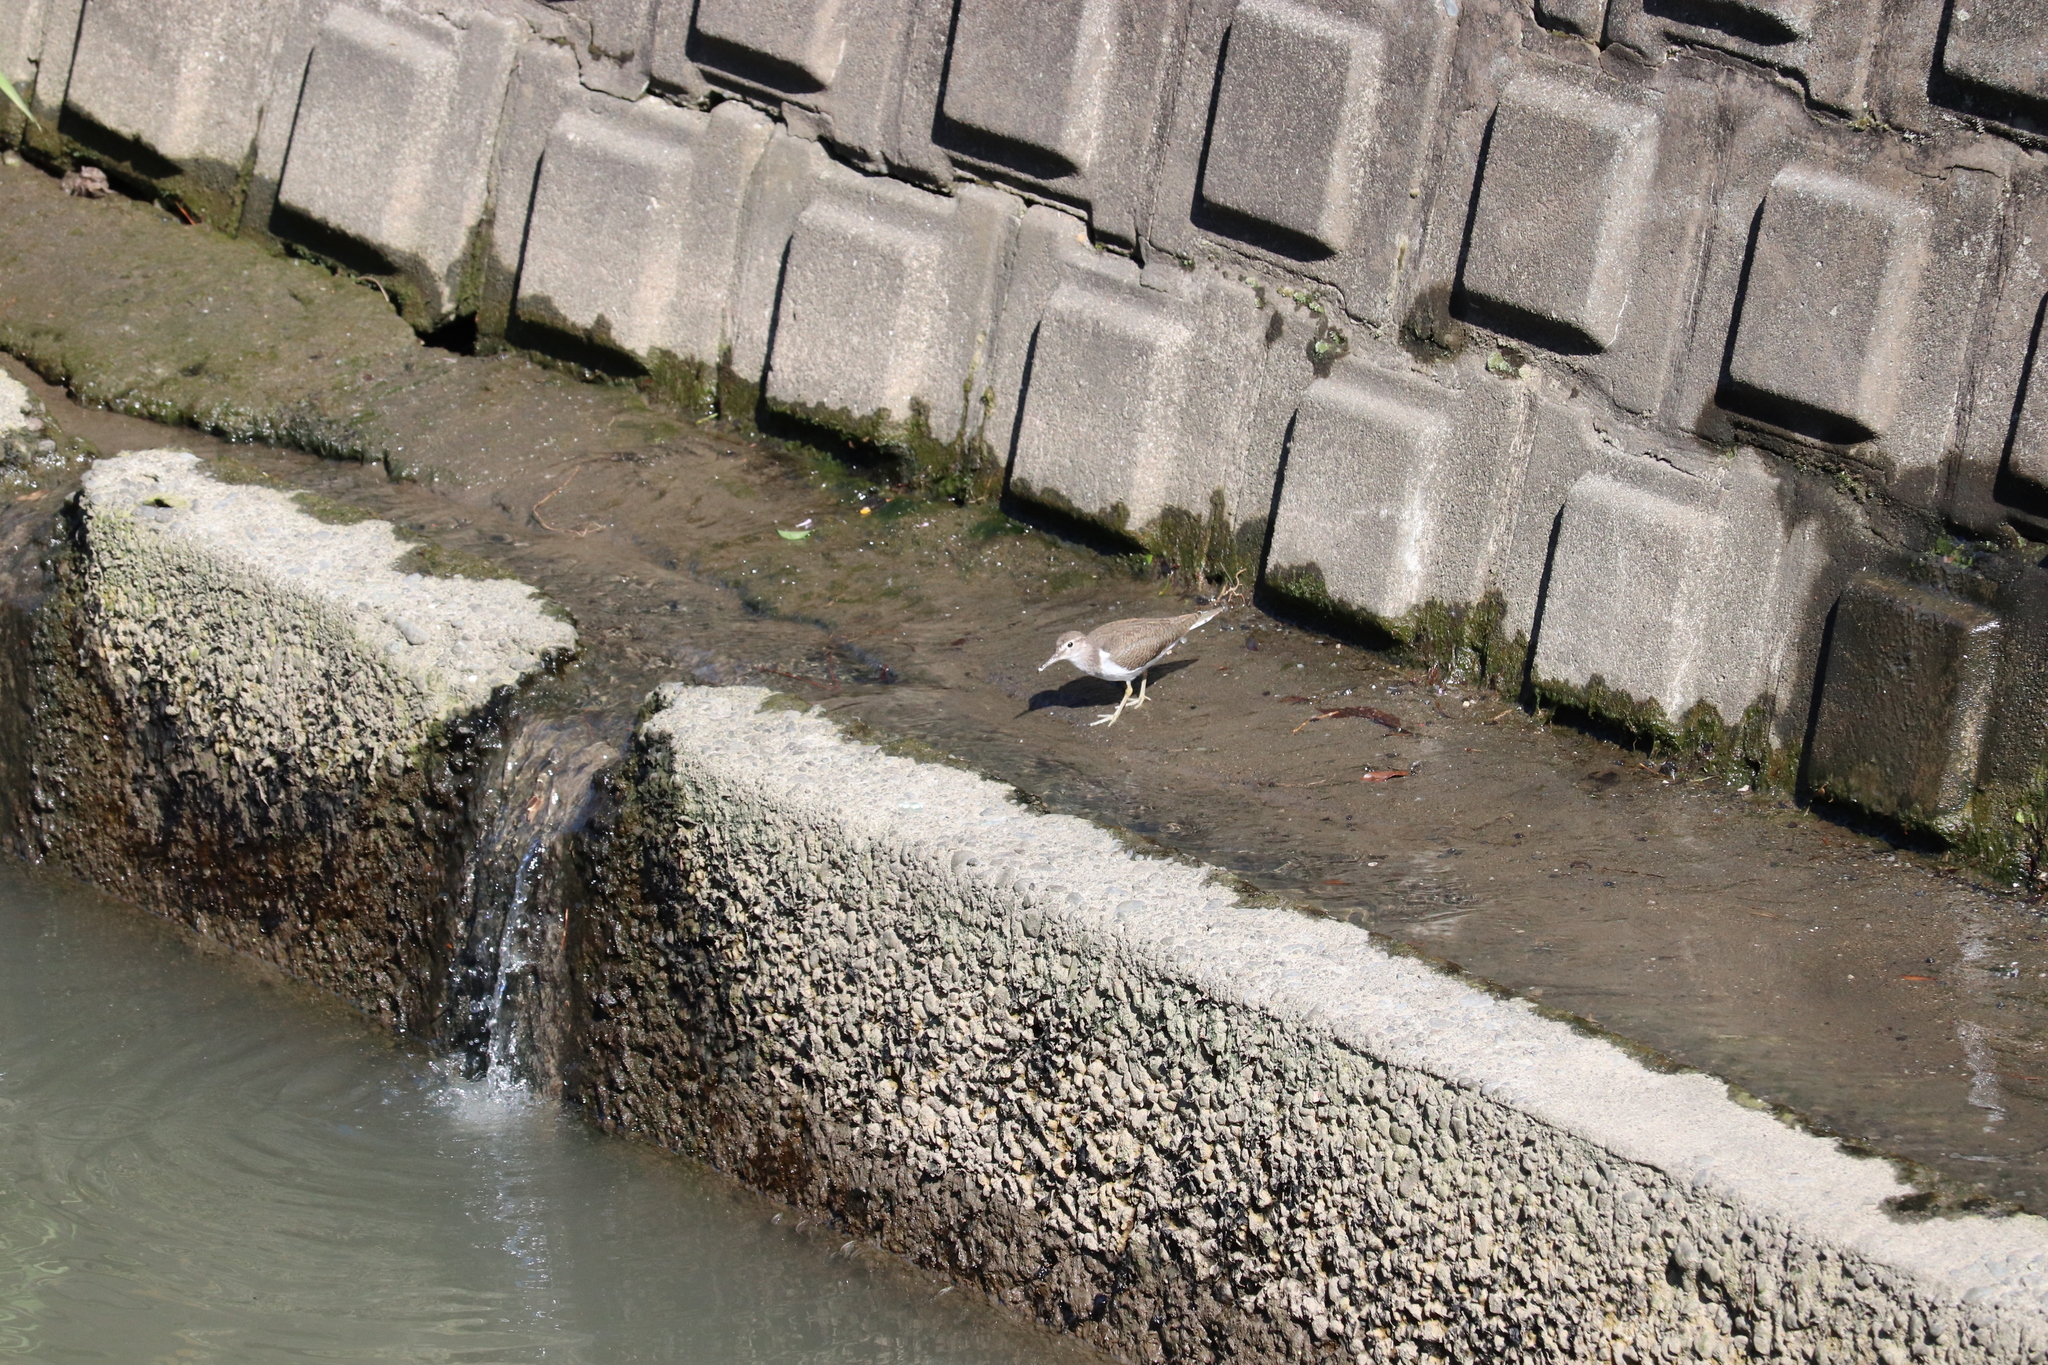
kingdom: Animalia
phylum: Chordata
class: Aves
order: Charadriiformes
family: Scolopacidae
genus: Actitis
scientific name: Actitis hypoleucos
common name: Common sandpiper
